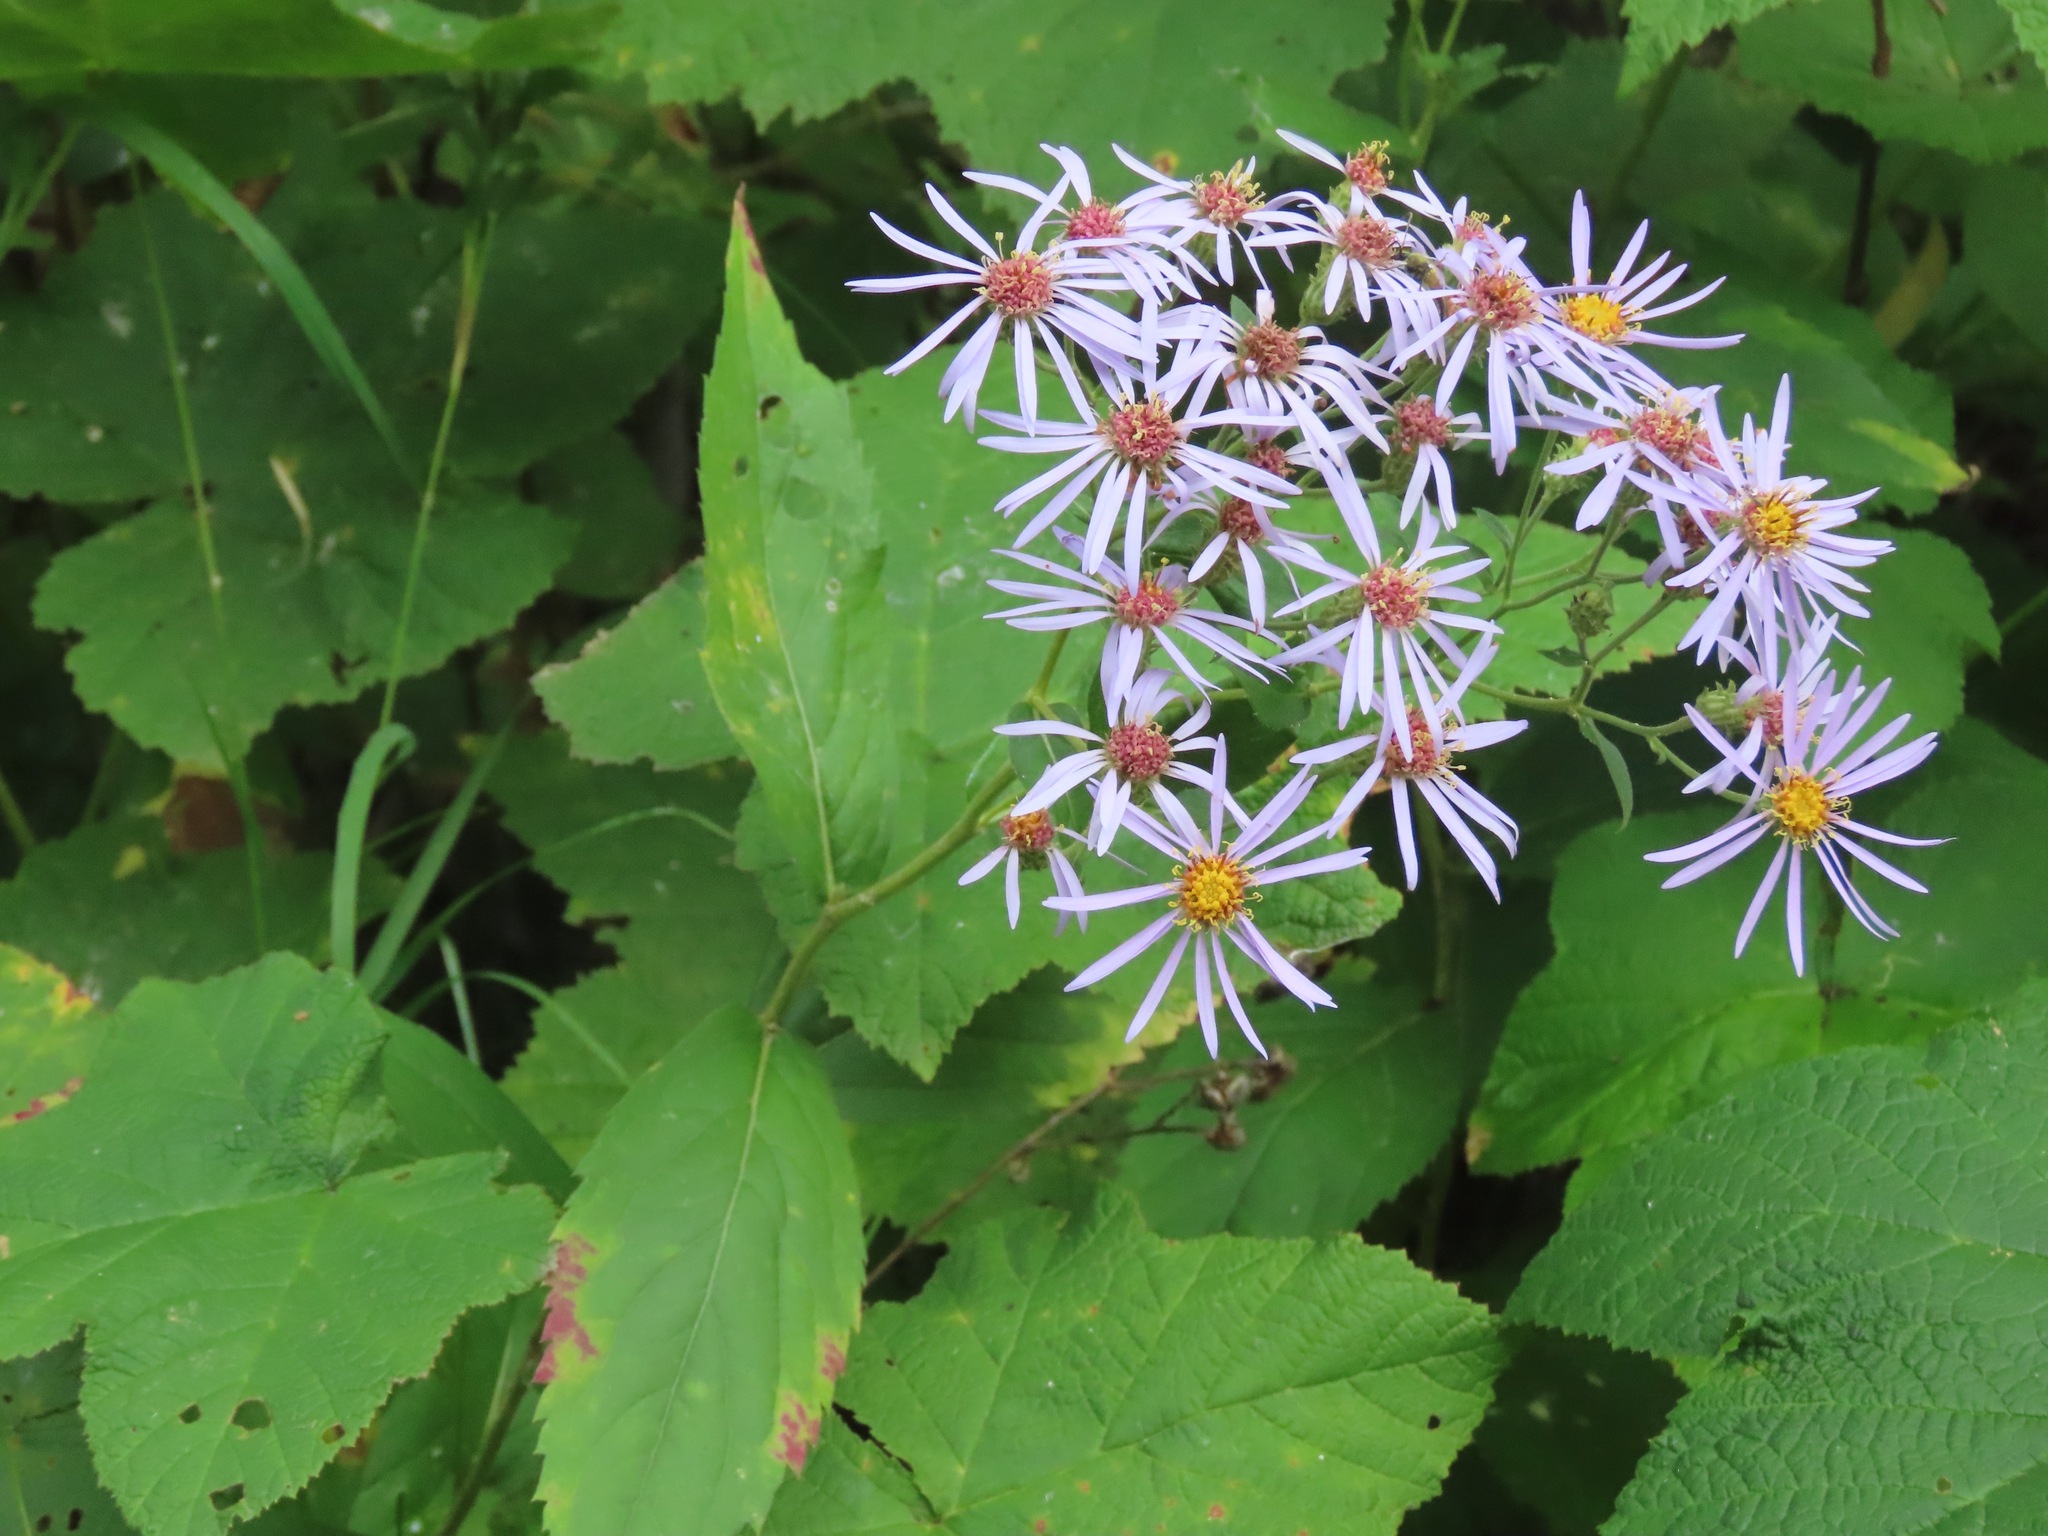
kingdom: Plantae
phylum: Tracheophyta
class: Magnoliopsida
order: Asterales
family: Asteraceae
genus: Eurybia
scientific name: Eurybia conspicua
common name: Showy aster
